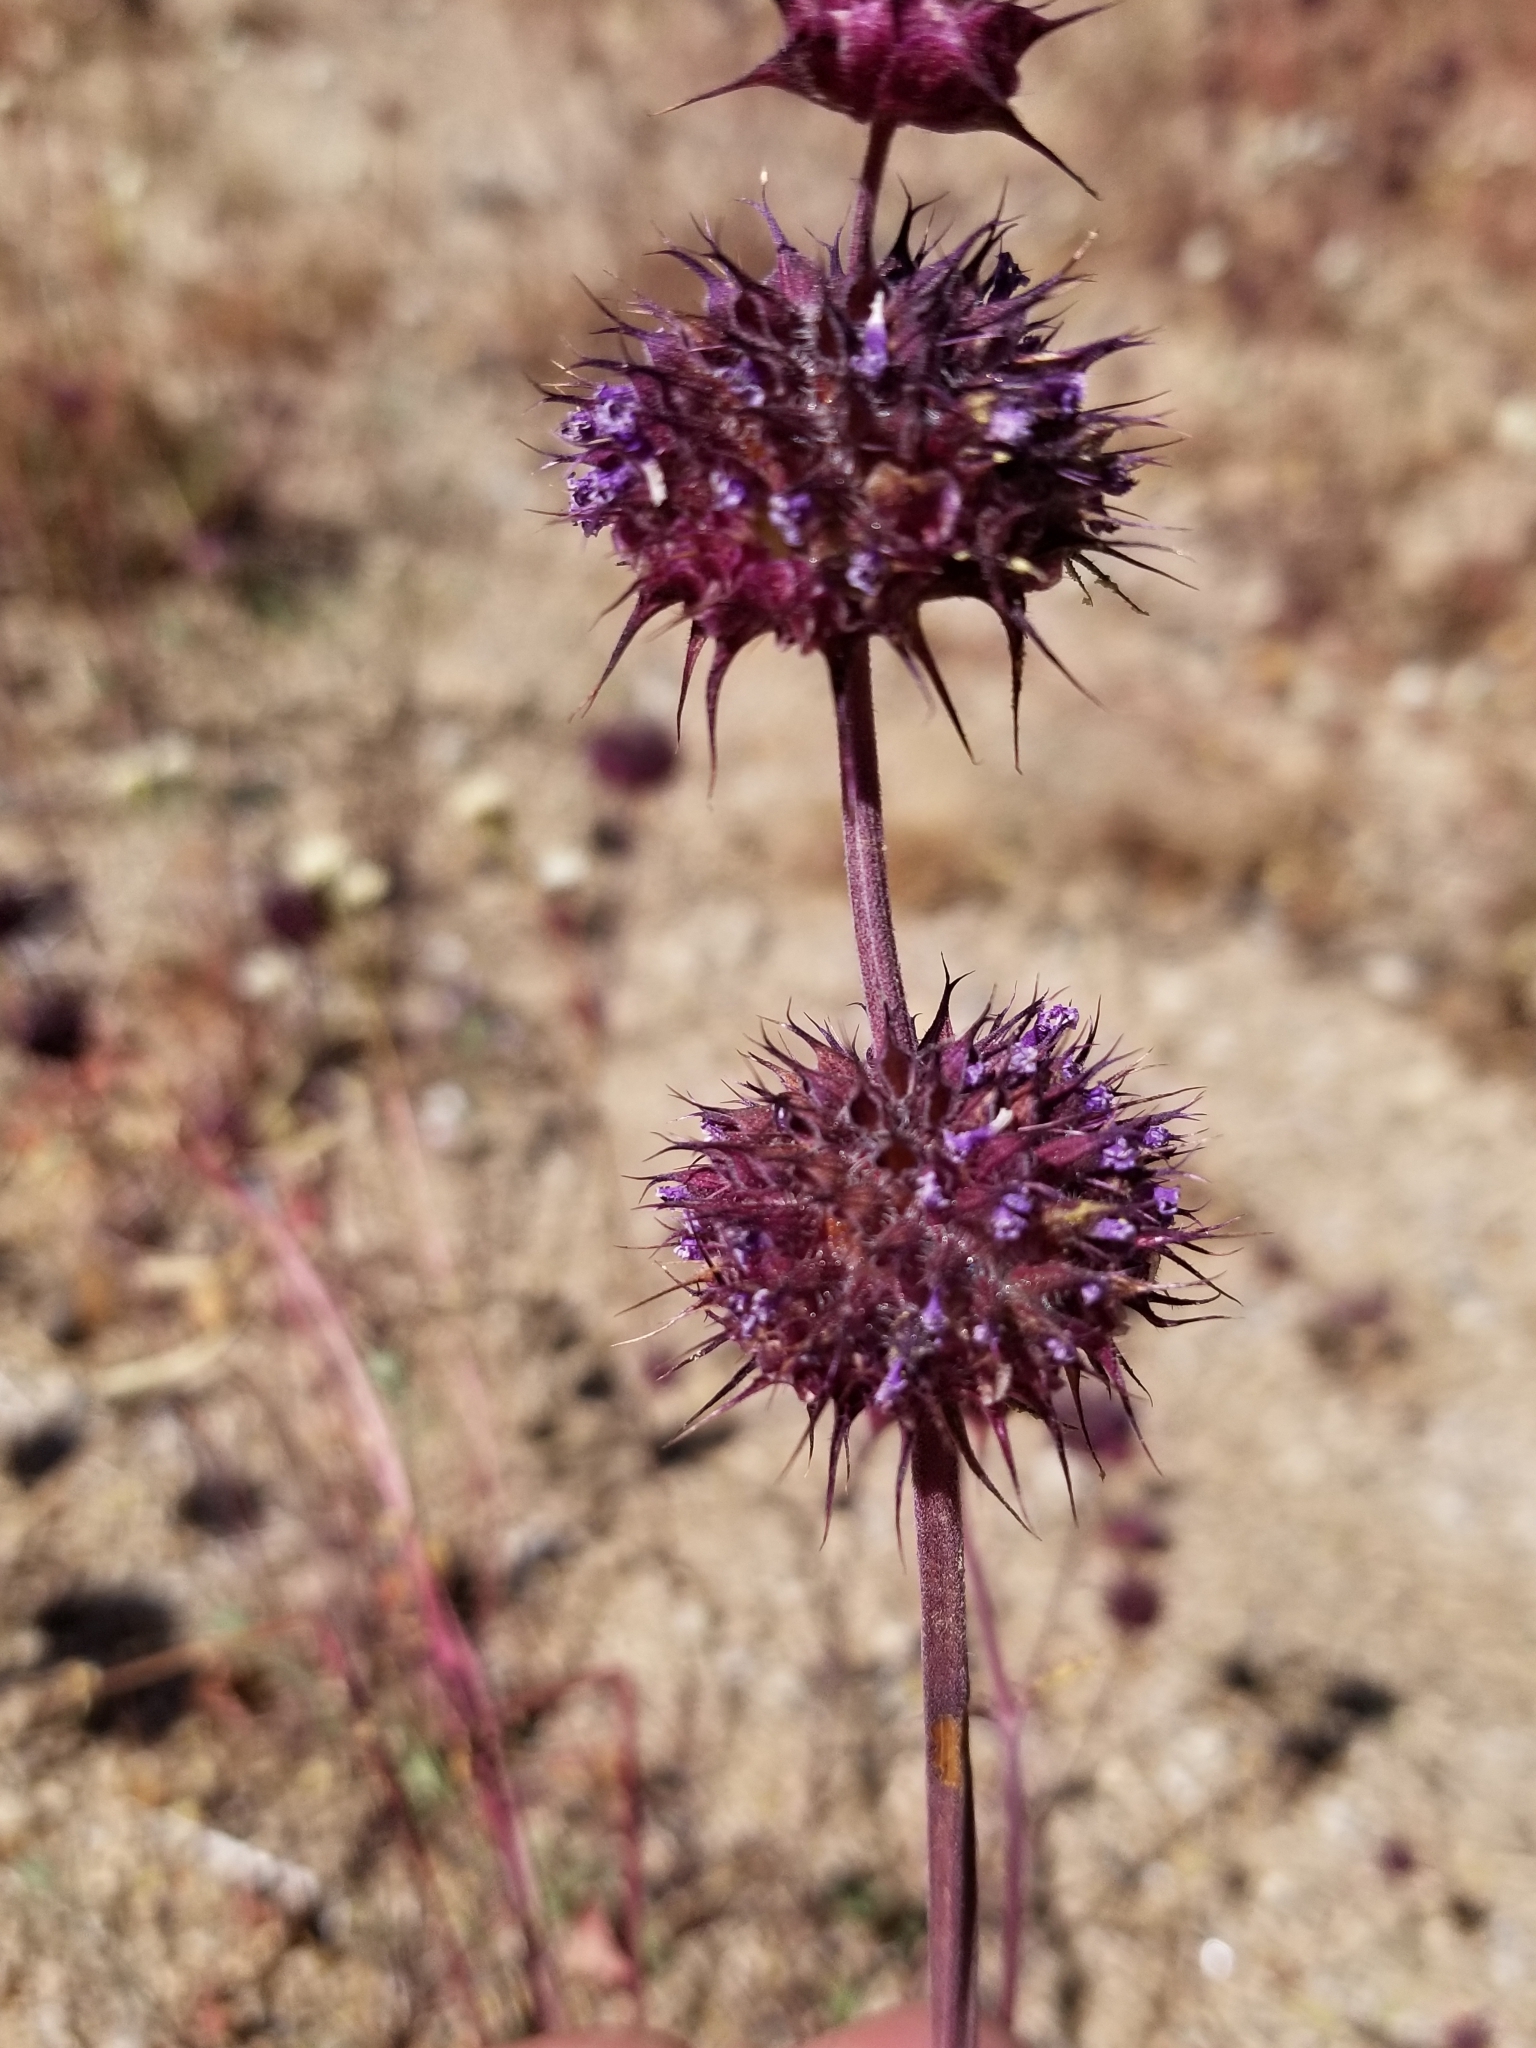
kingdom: Plantae
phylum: Tracheophyta
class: Magnoliopsida
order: Lamiales
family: Lamiaceae
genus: Salvia
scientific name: Salvia columbariae
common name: Chia
